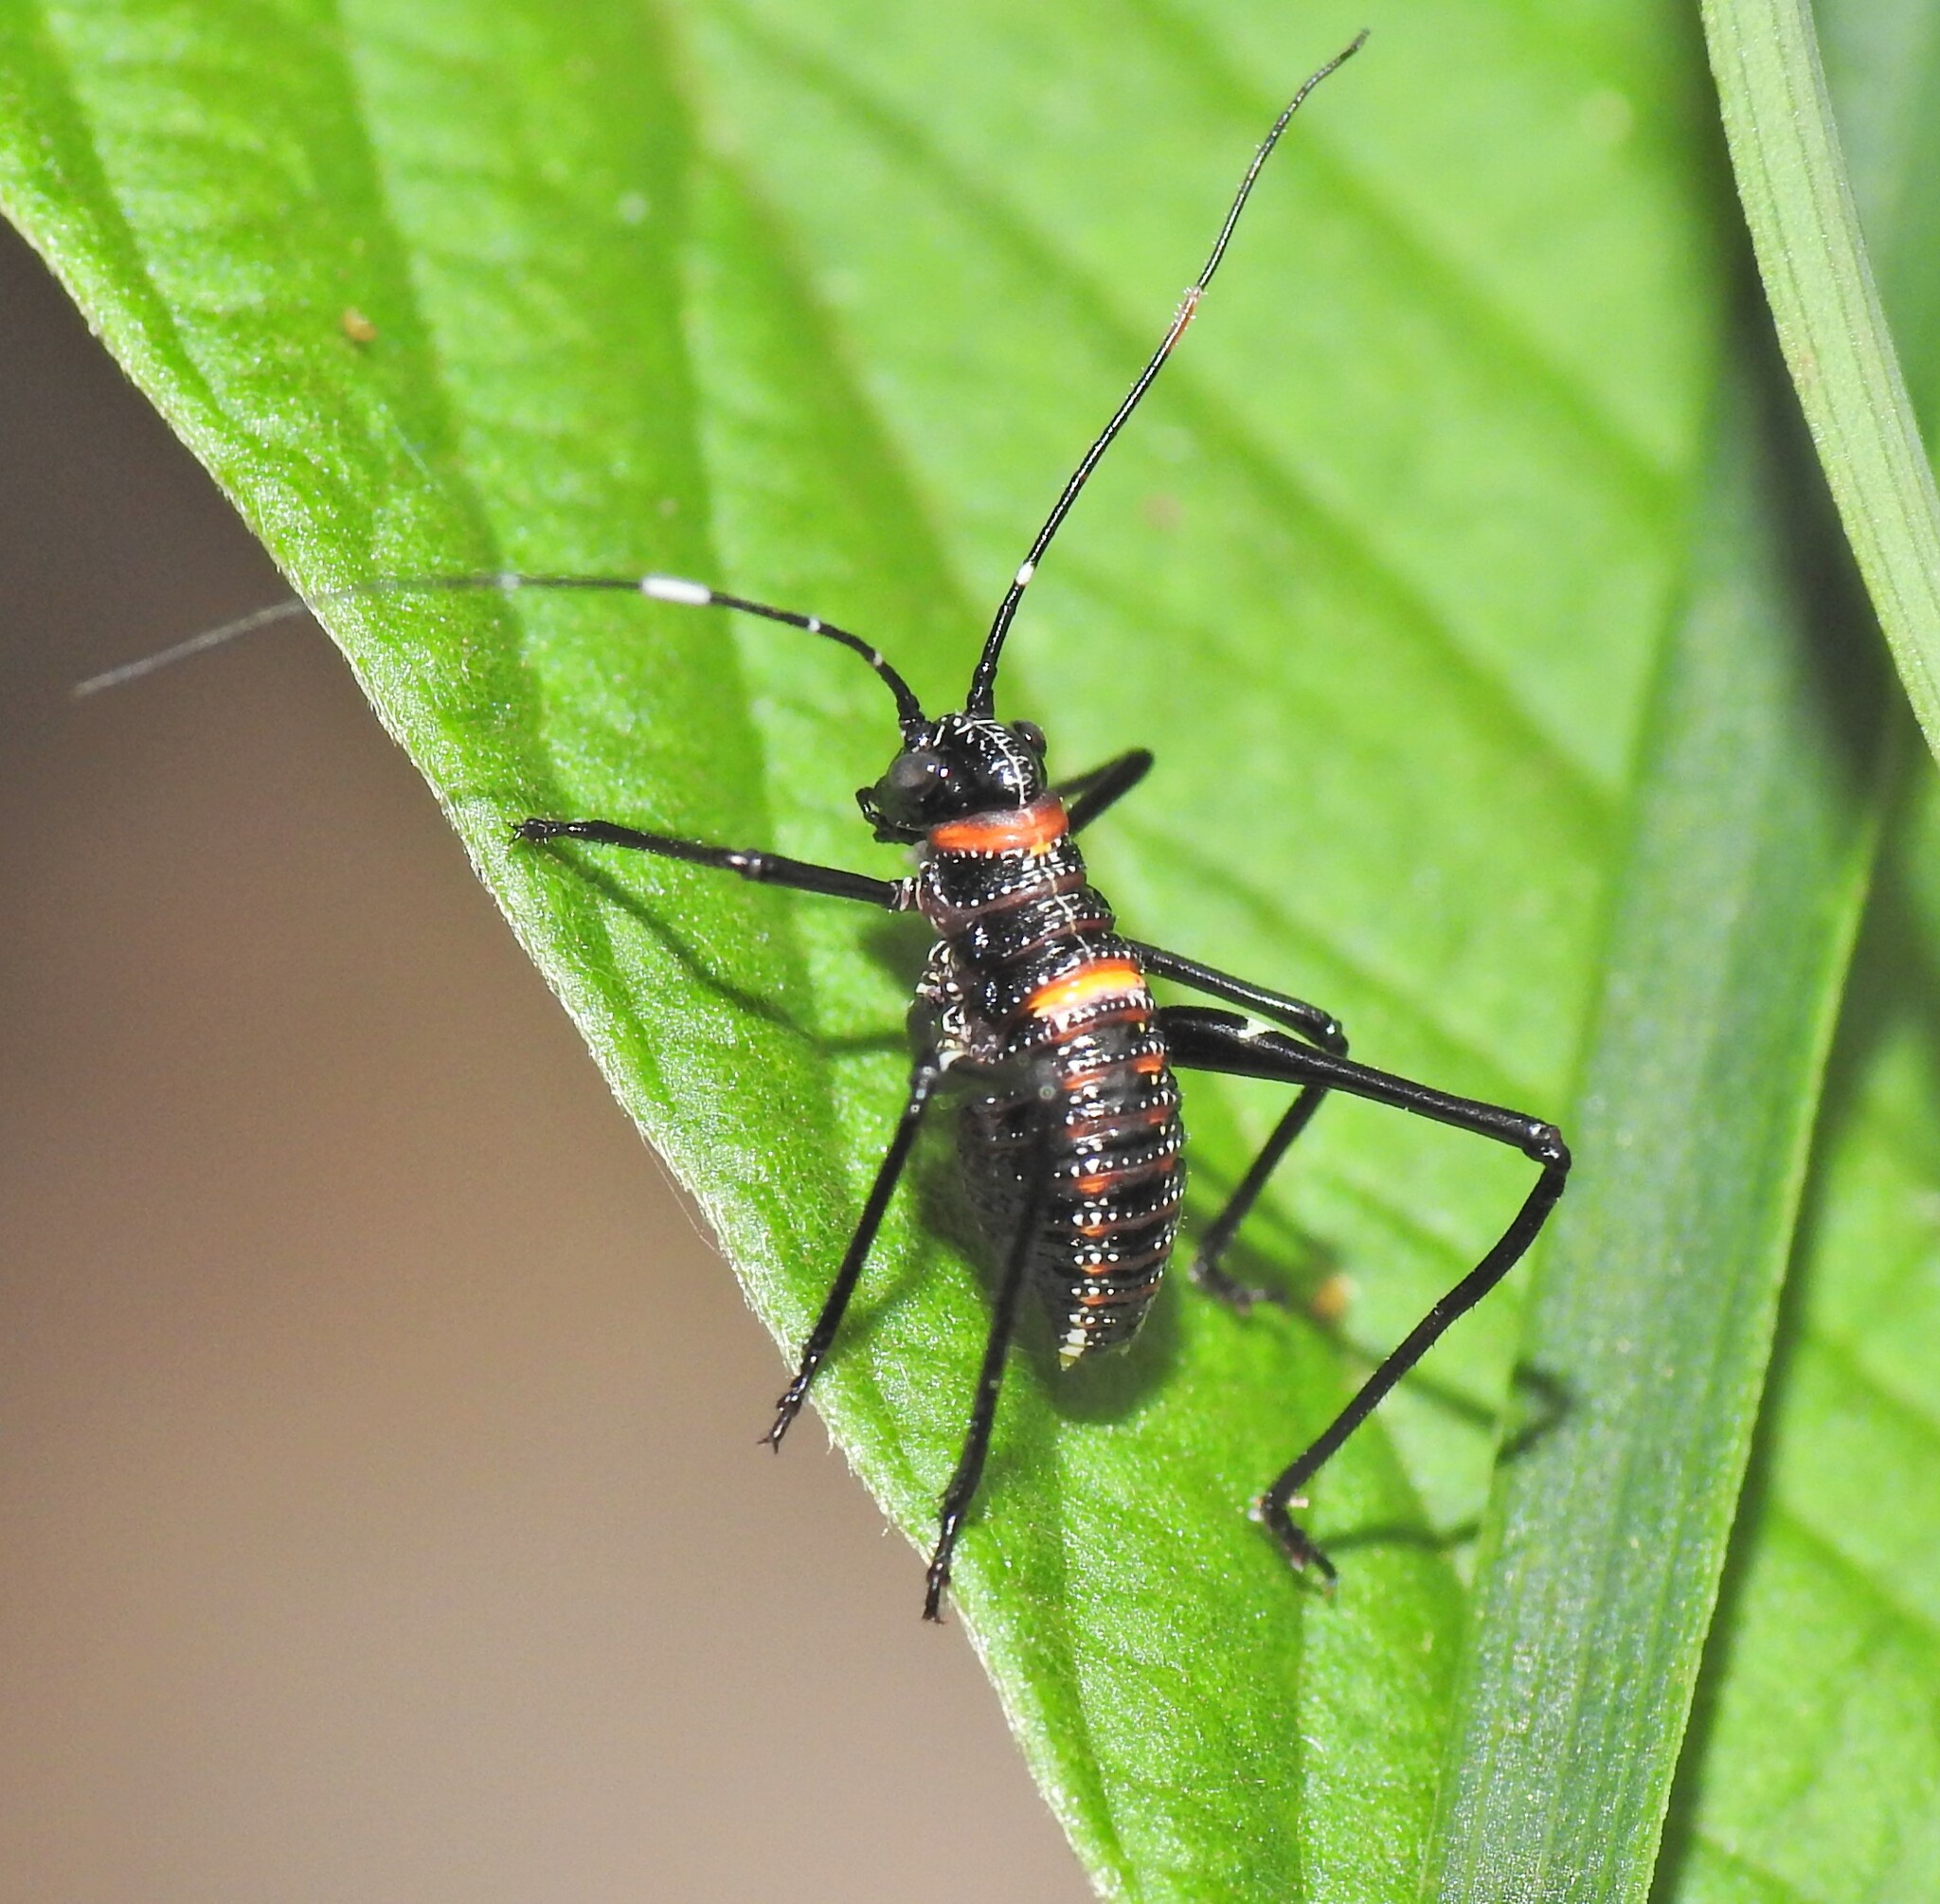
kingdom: Animalia
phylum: Arthropoda
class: Insecta
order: Orthoptera
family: Tettigoniidae
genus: Acripeza
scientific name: Acripeza reticulata
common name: Mountain katydid
